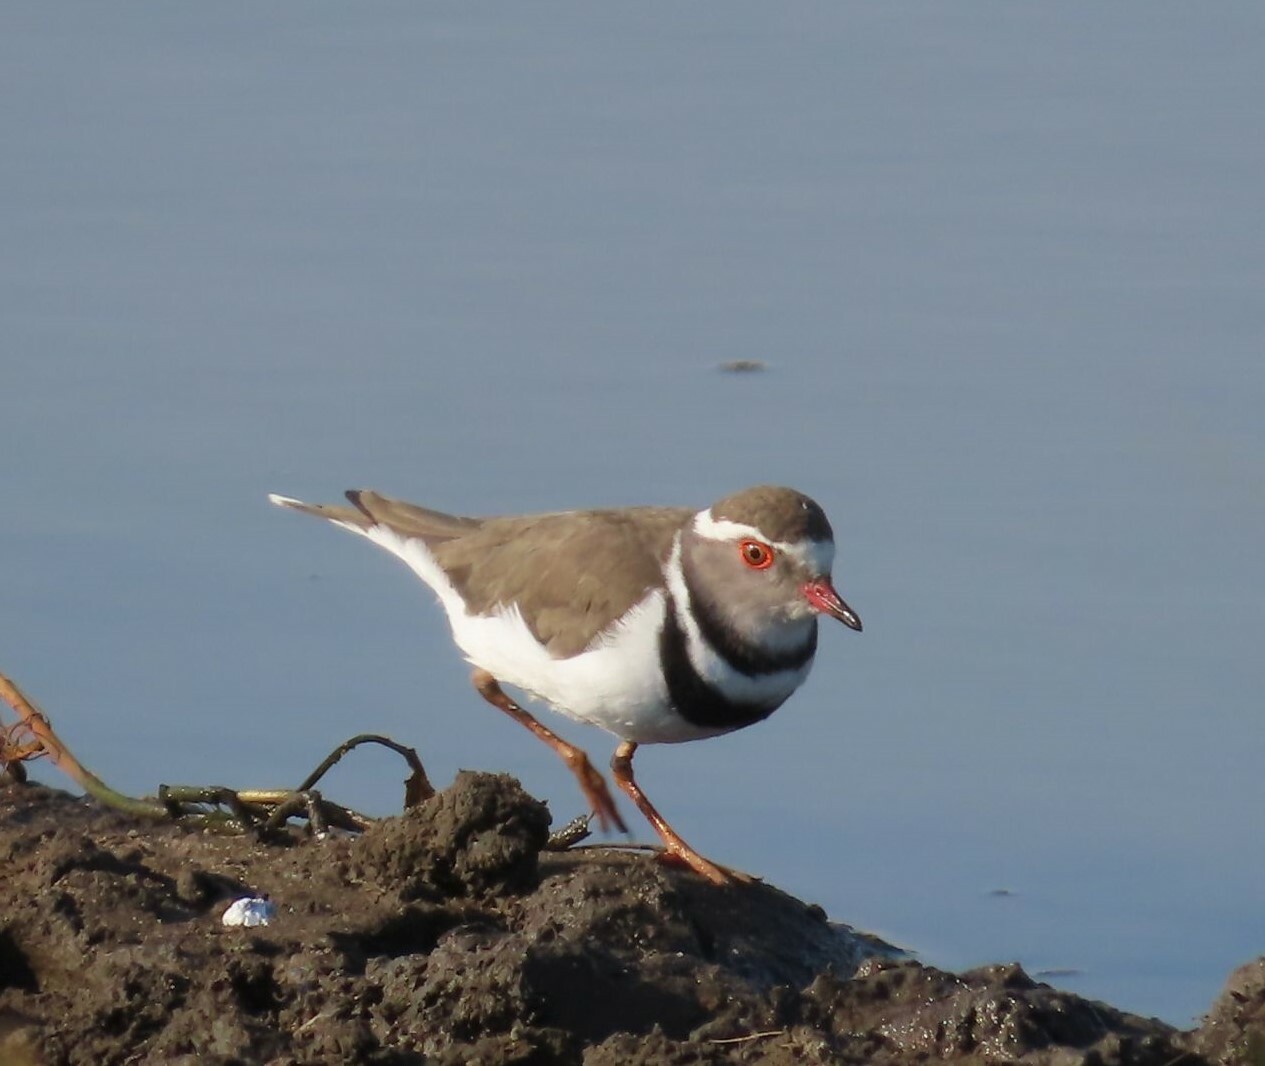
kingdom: Animalia
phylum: Chordata
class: Aves
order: Charadriiformes
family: Charadriidae
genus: Charadrius
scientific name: Charadrius tricollaris
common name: Three-banded plover
